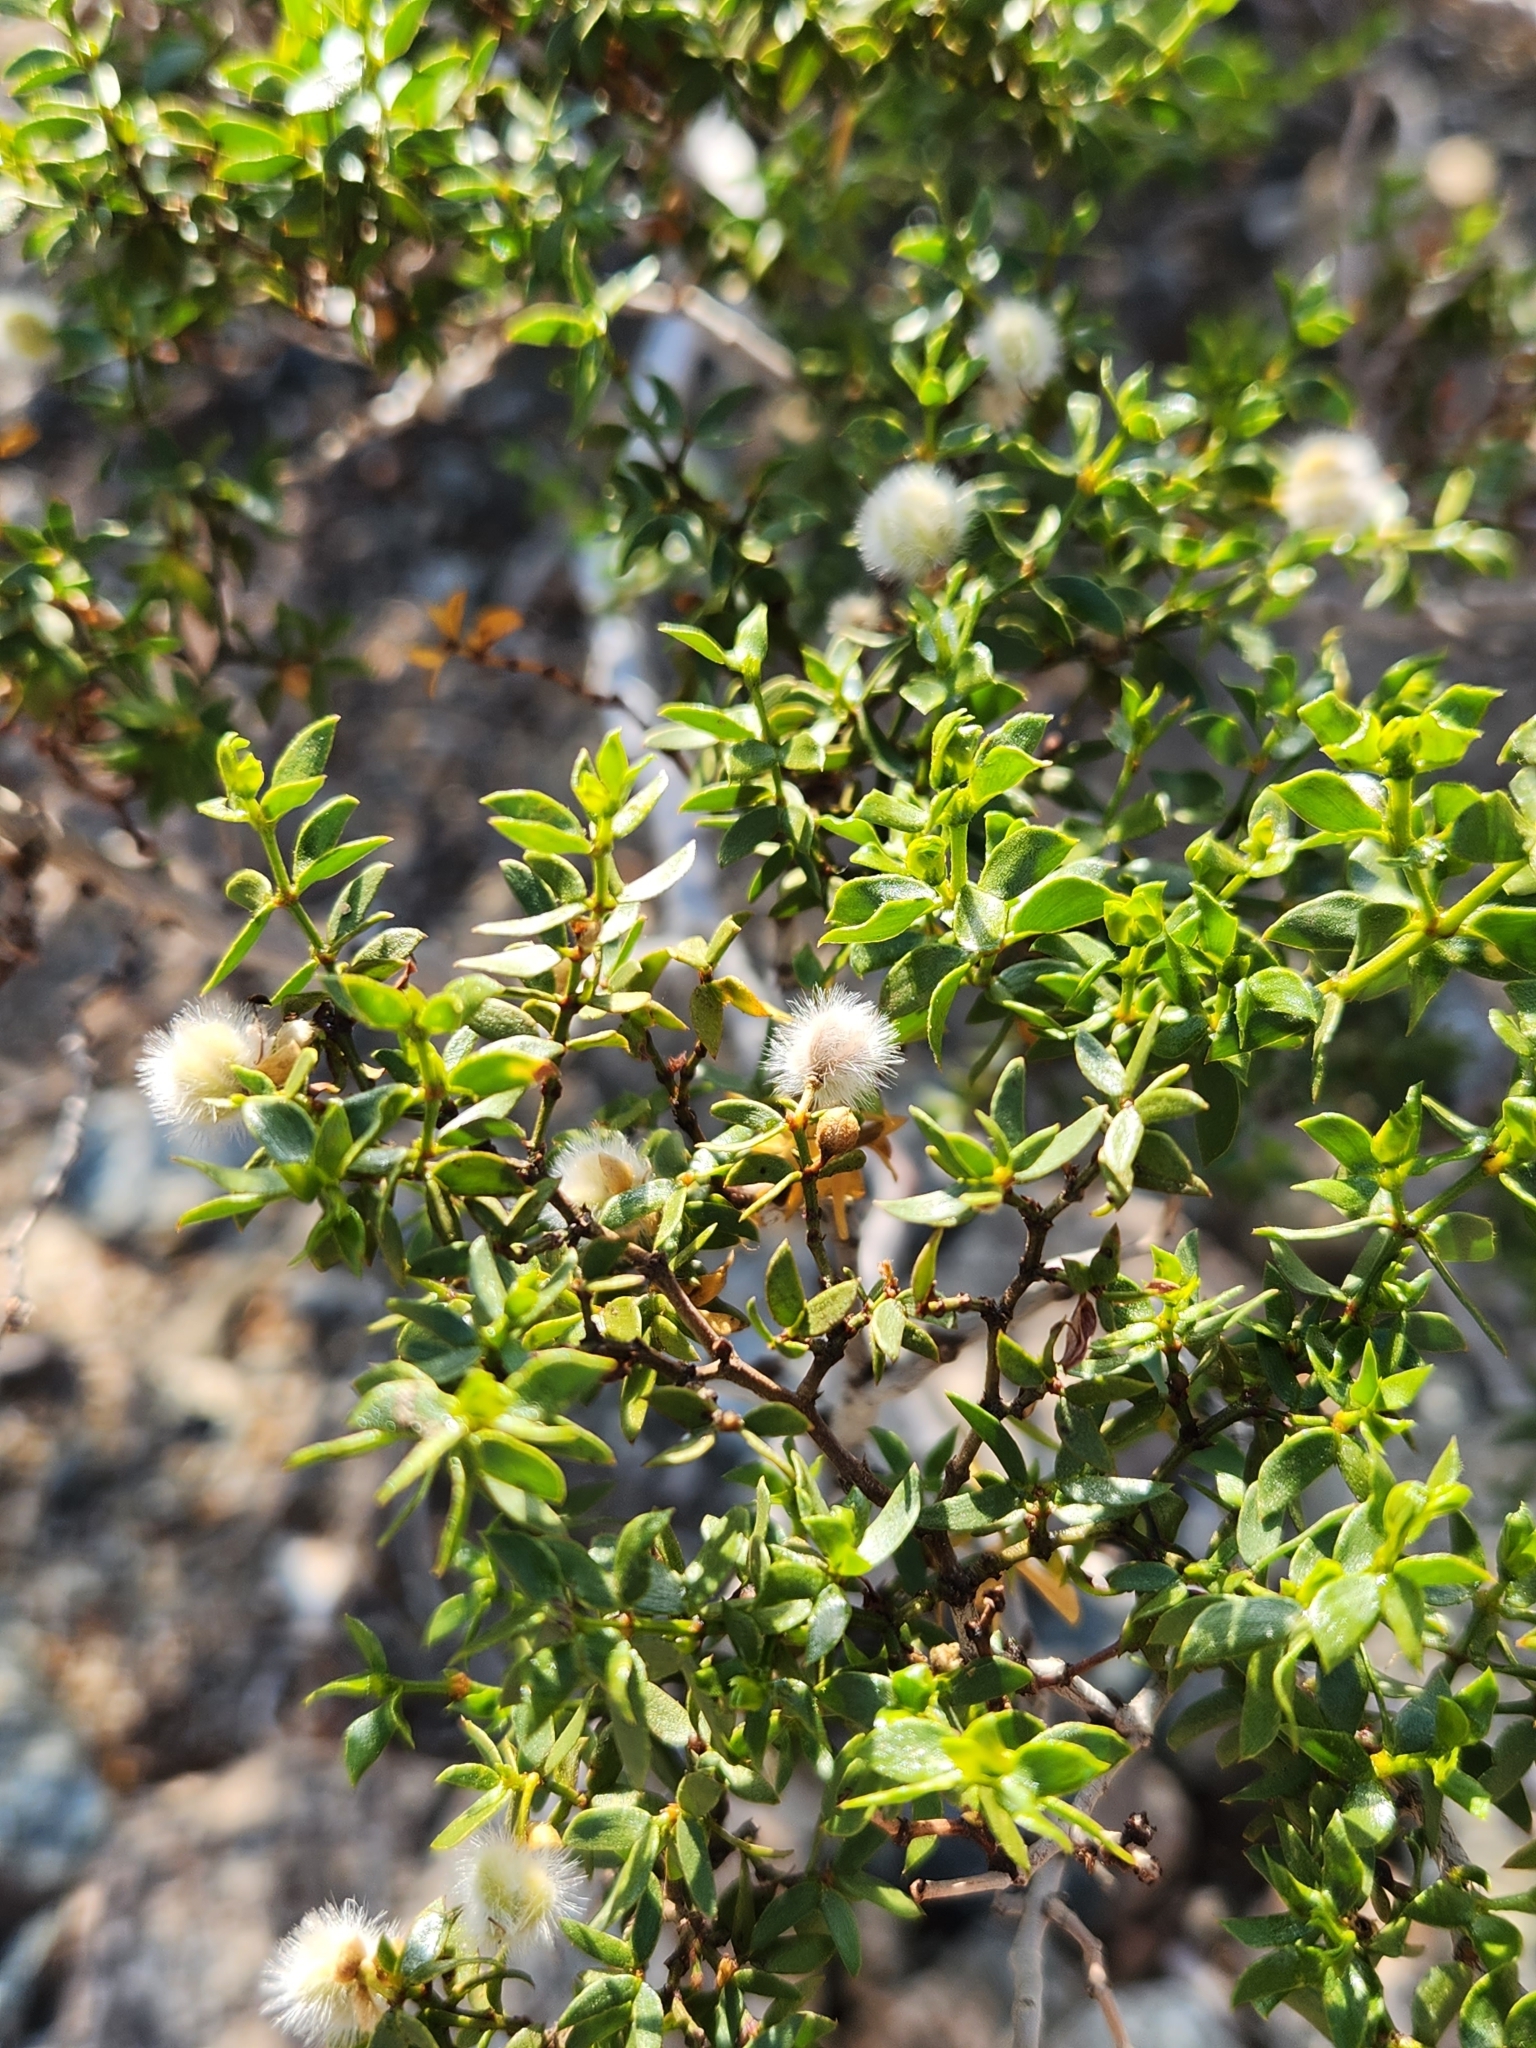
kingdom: Plantae
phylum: Tracheophyta
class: Magnoliopsida
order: Zygophyllales
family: Zygophyllaceae
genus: Larrea
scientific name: Larrea tridentata
